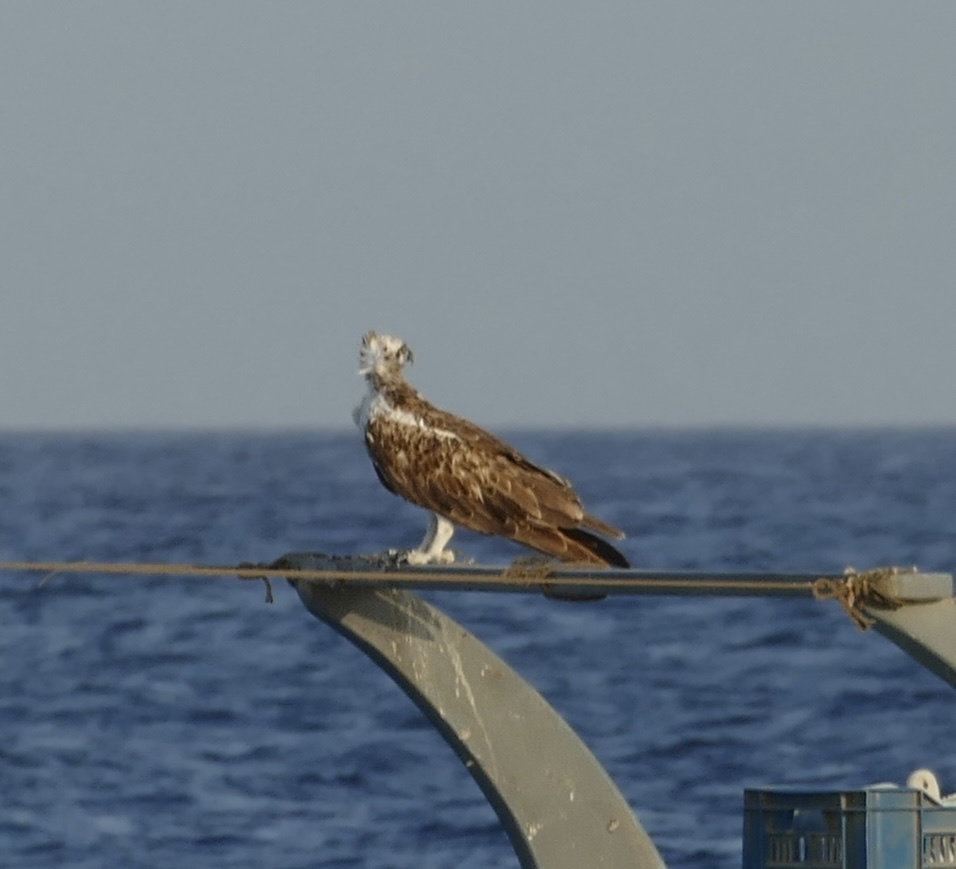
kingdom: Animalia
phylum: Chordata
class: Aves
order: Accipitriformes
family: Pandionidae
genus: Pandion
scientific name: Pandion haliaetus
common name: Osprey
